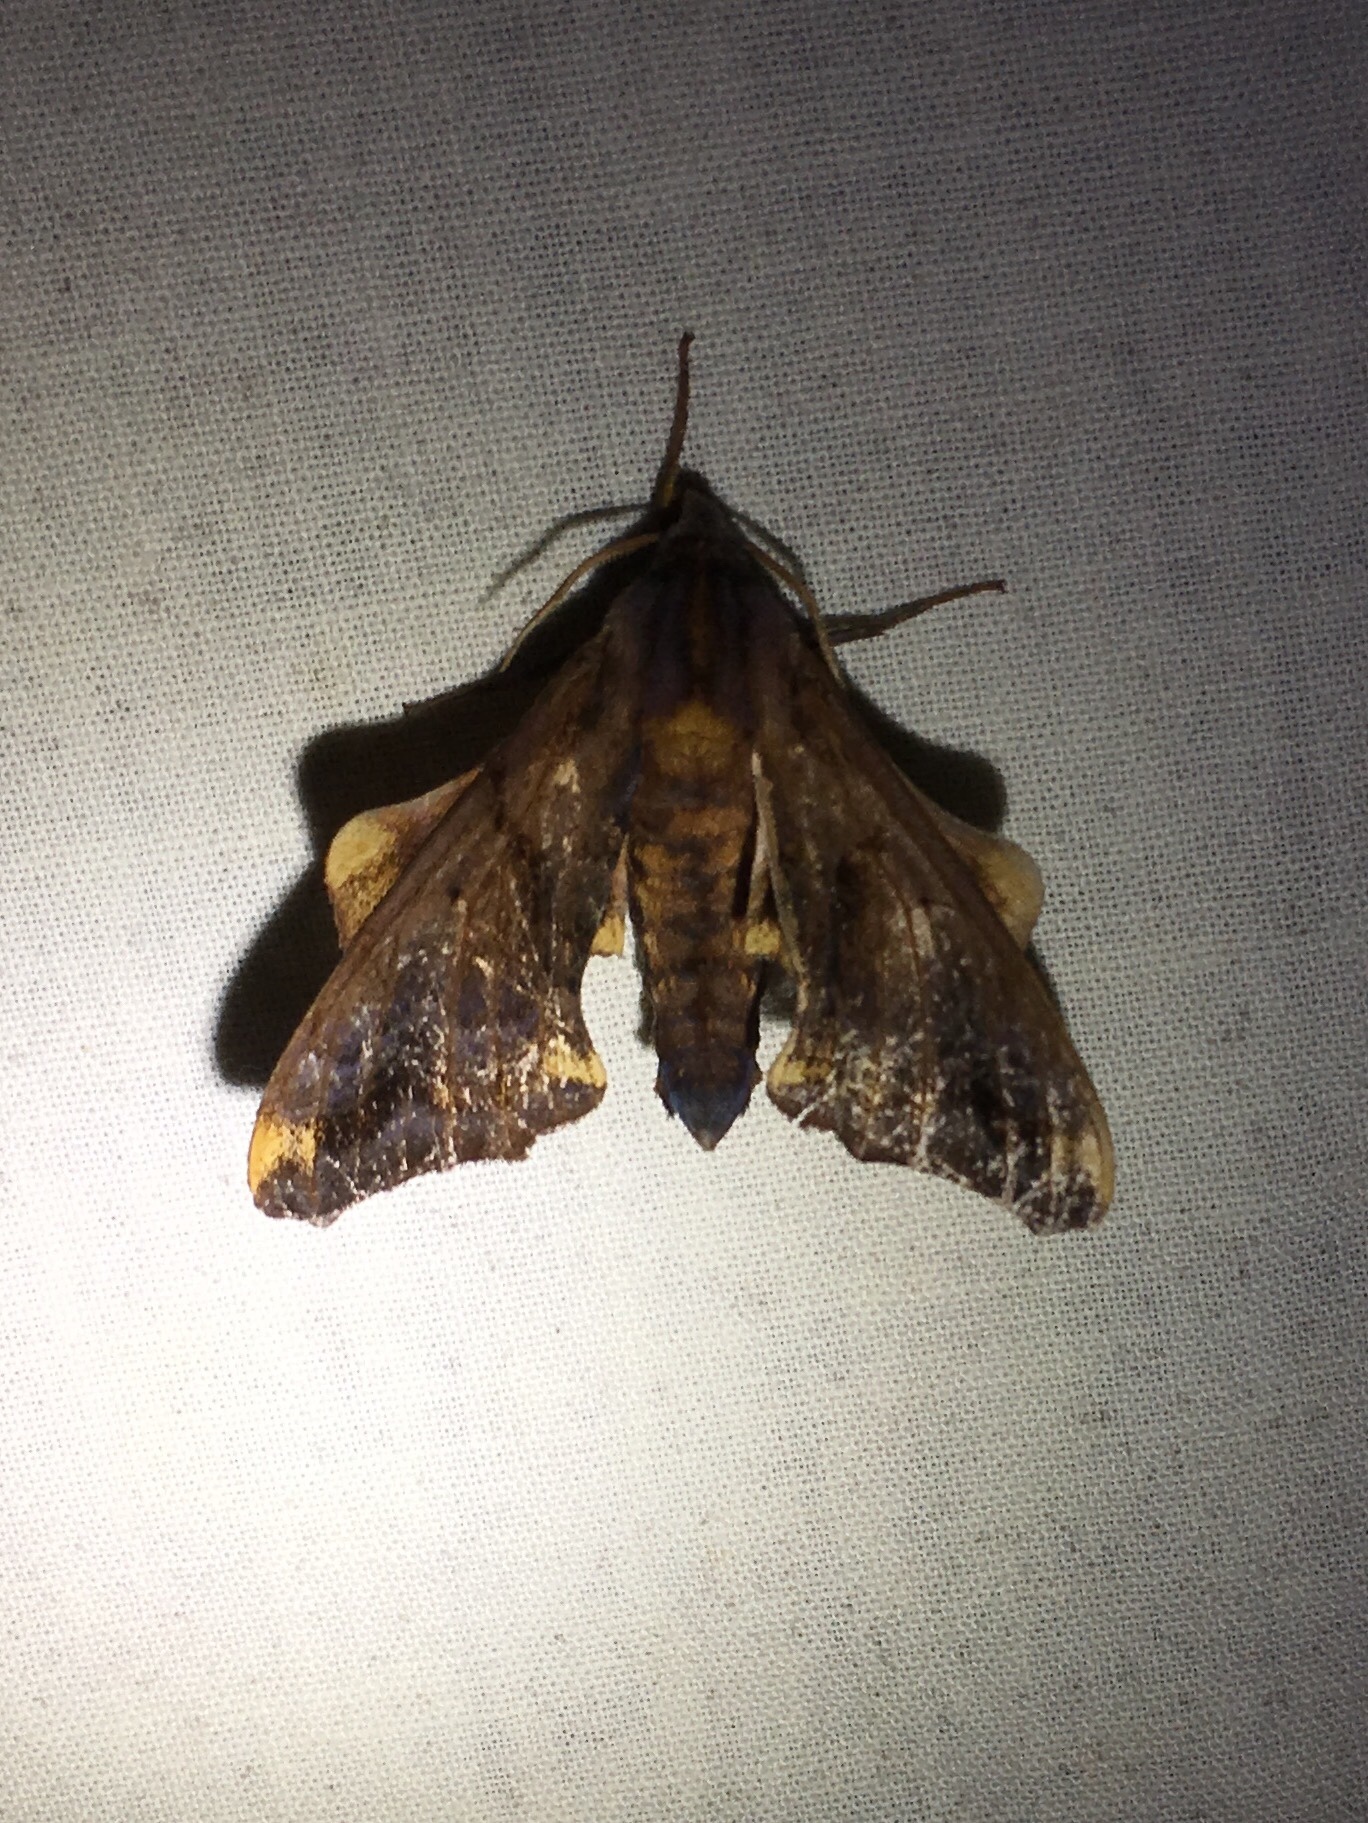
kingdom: Animalia
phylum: Arthropoda
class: Insecta
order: Lepidoptera
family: Sphingidae
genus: Paonias
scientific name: Paonias myops
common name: Small-eyed sphinx
